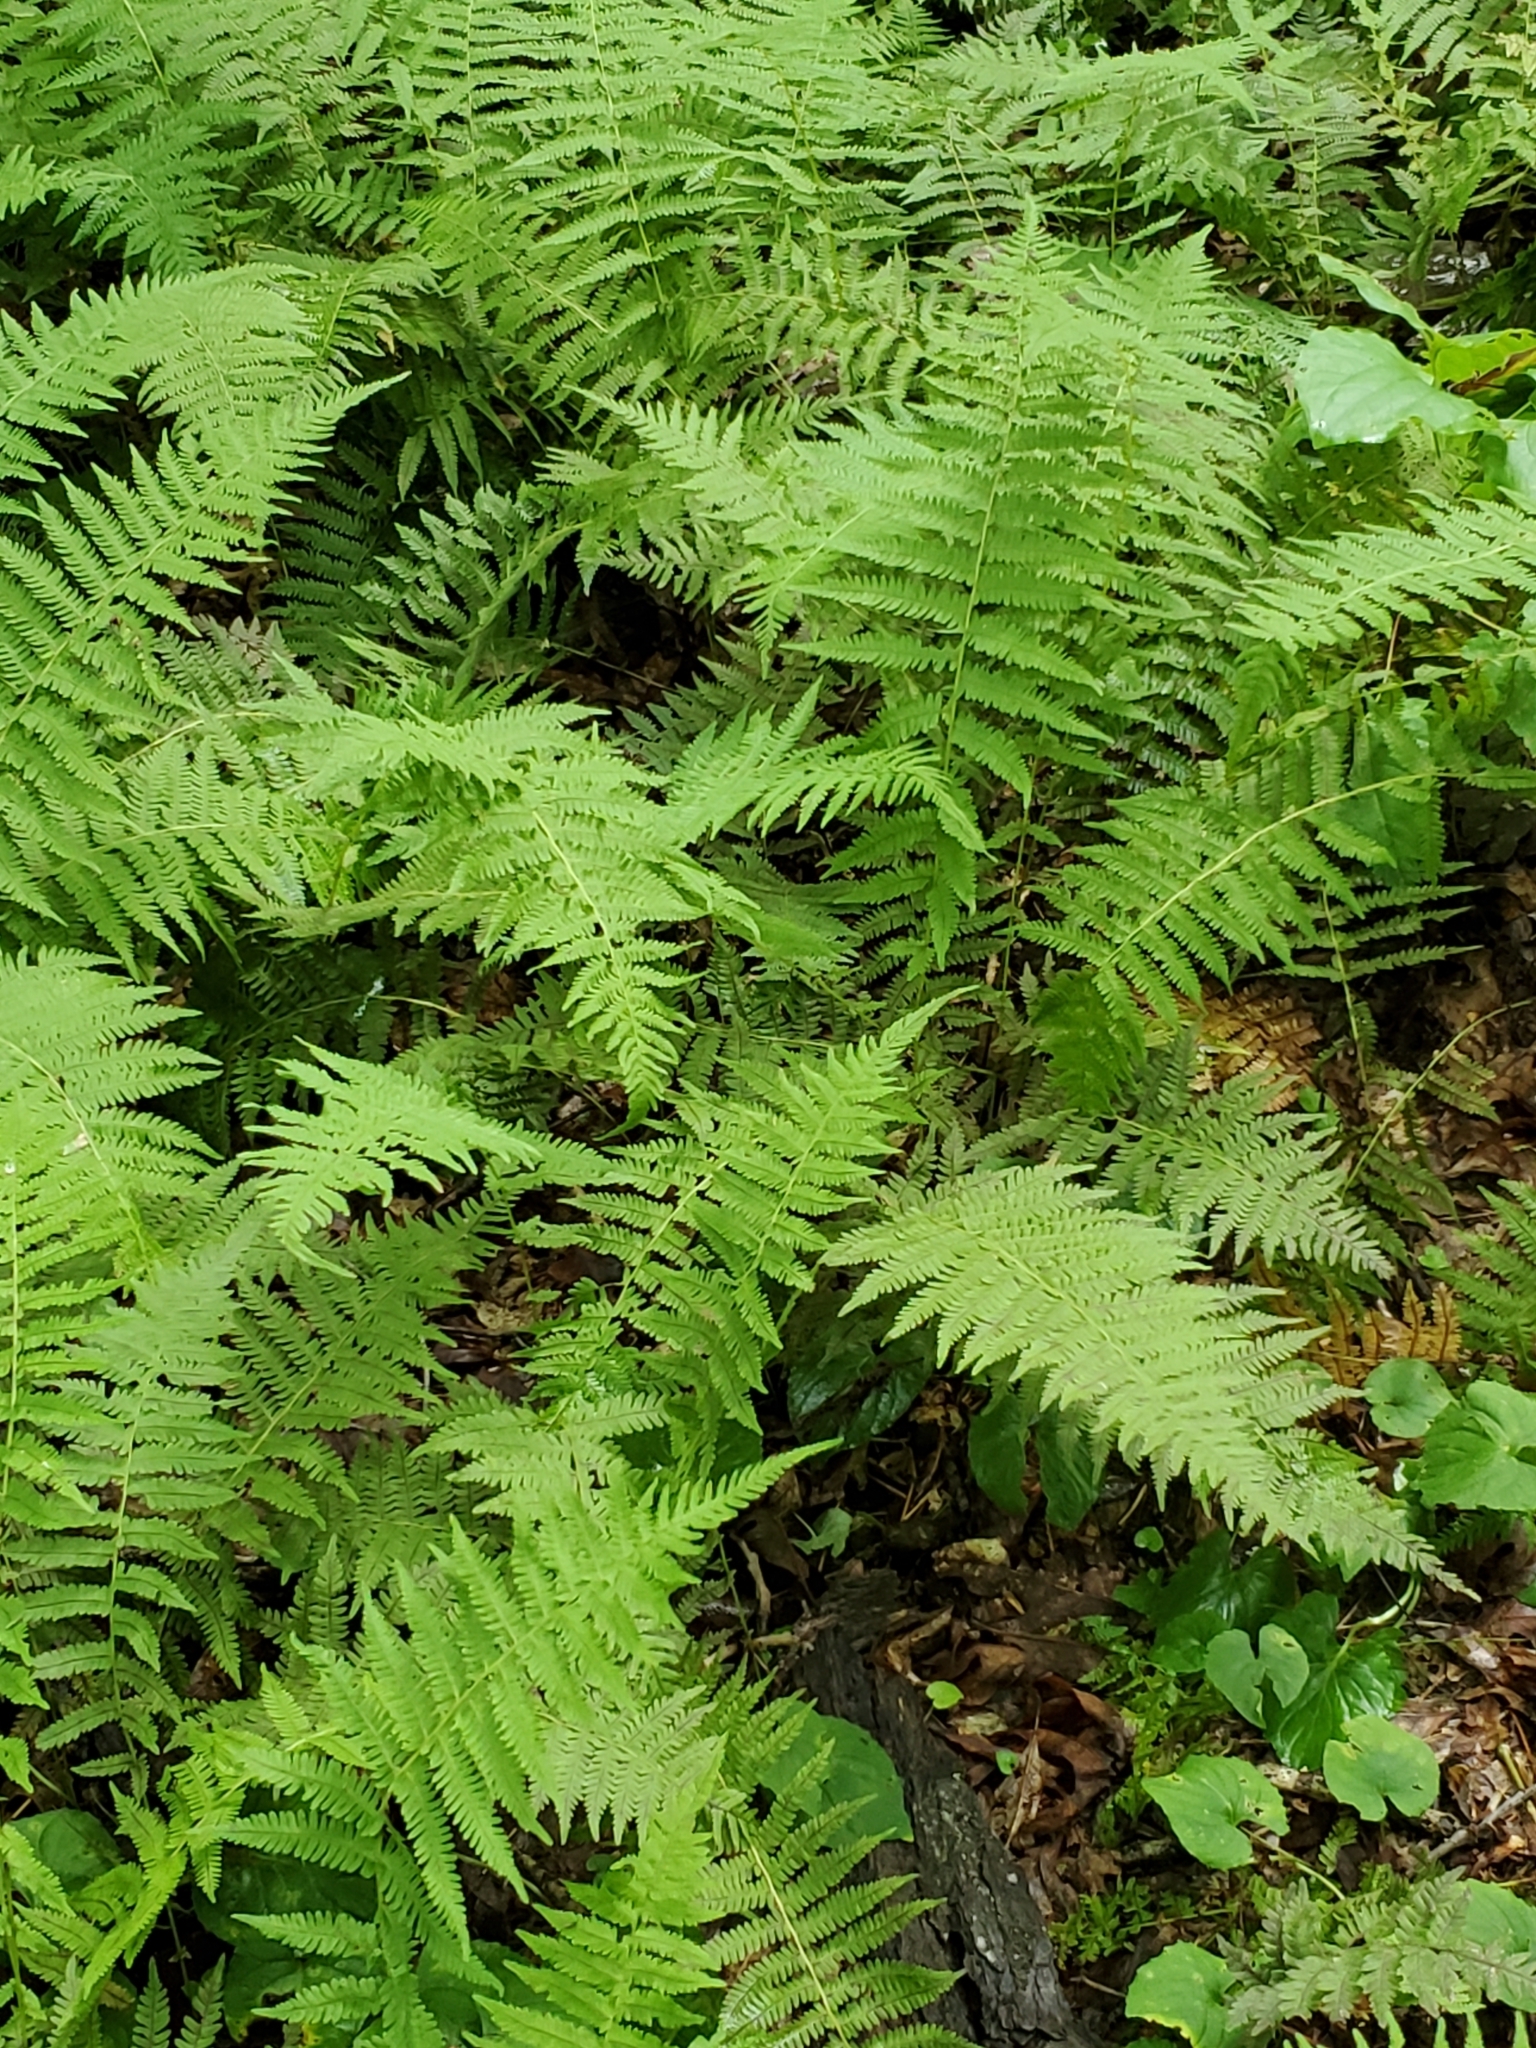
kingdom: Plantae
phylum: Tracheophyta
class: Polypodiopsida
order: Polypodiales
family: Thelypteridaceae
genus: Amauropelta
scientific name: Amauropelta noveboracensis
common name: New york fern
